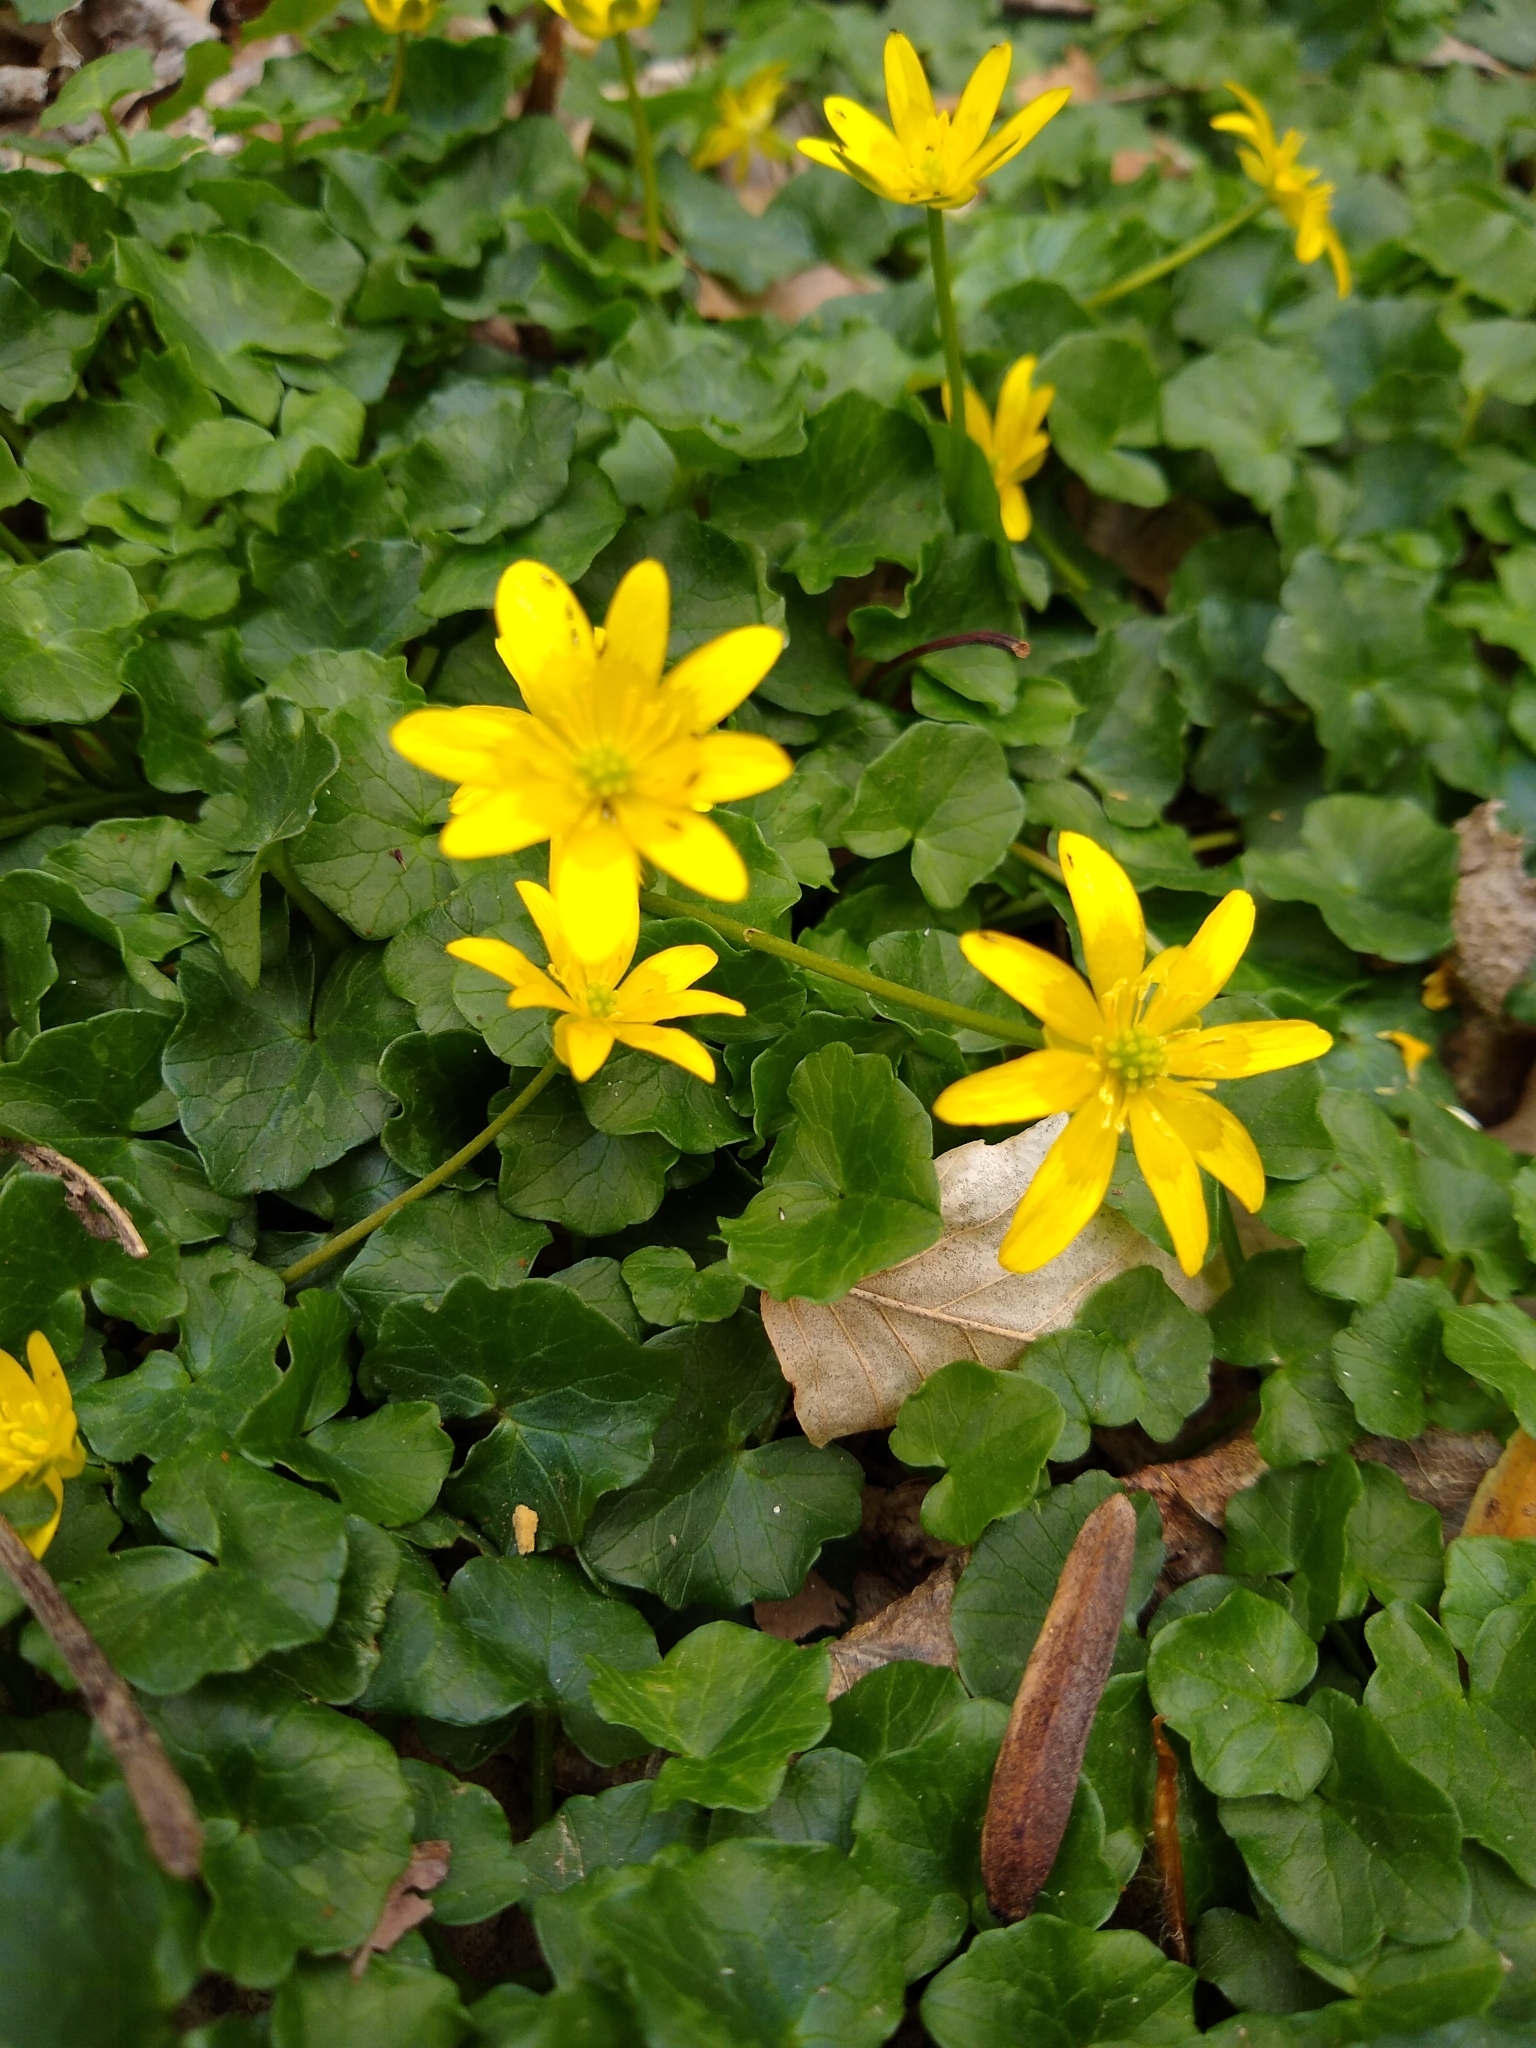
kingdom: Plantae
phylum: Tracheophyta
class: Magnoliopsida
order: Ranunculales
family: Ranunculaceae
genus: Ficaria
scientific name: Ficaria verna
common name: Lesser celandine
